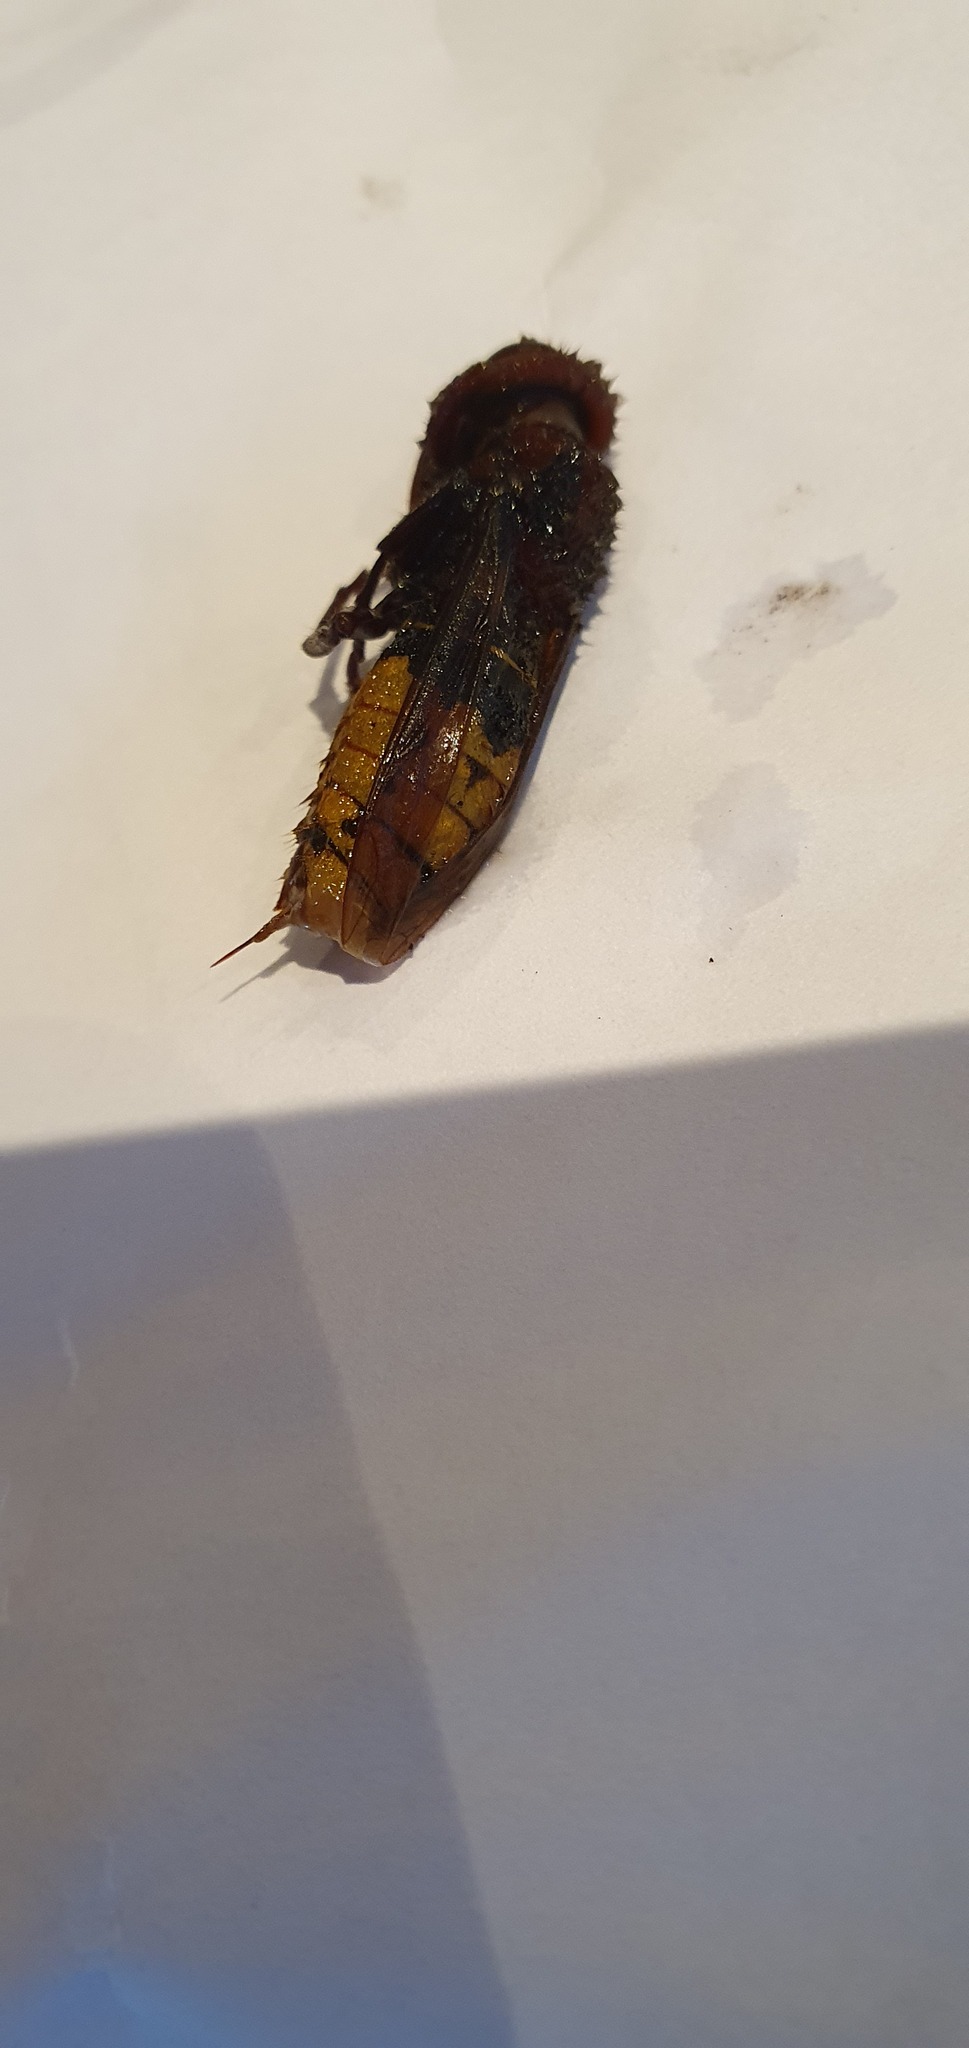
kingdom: Animalia
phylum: Arthropoda
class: Insecta
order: Hymenoptera
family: Vespidae
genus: Vespa
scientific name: Vespa crabro
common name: Hornet
